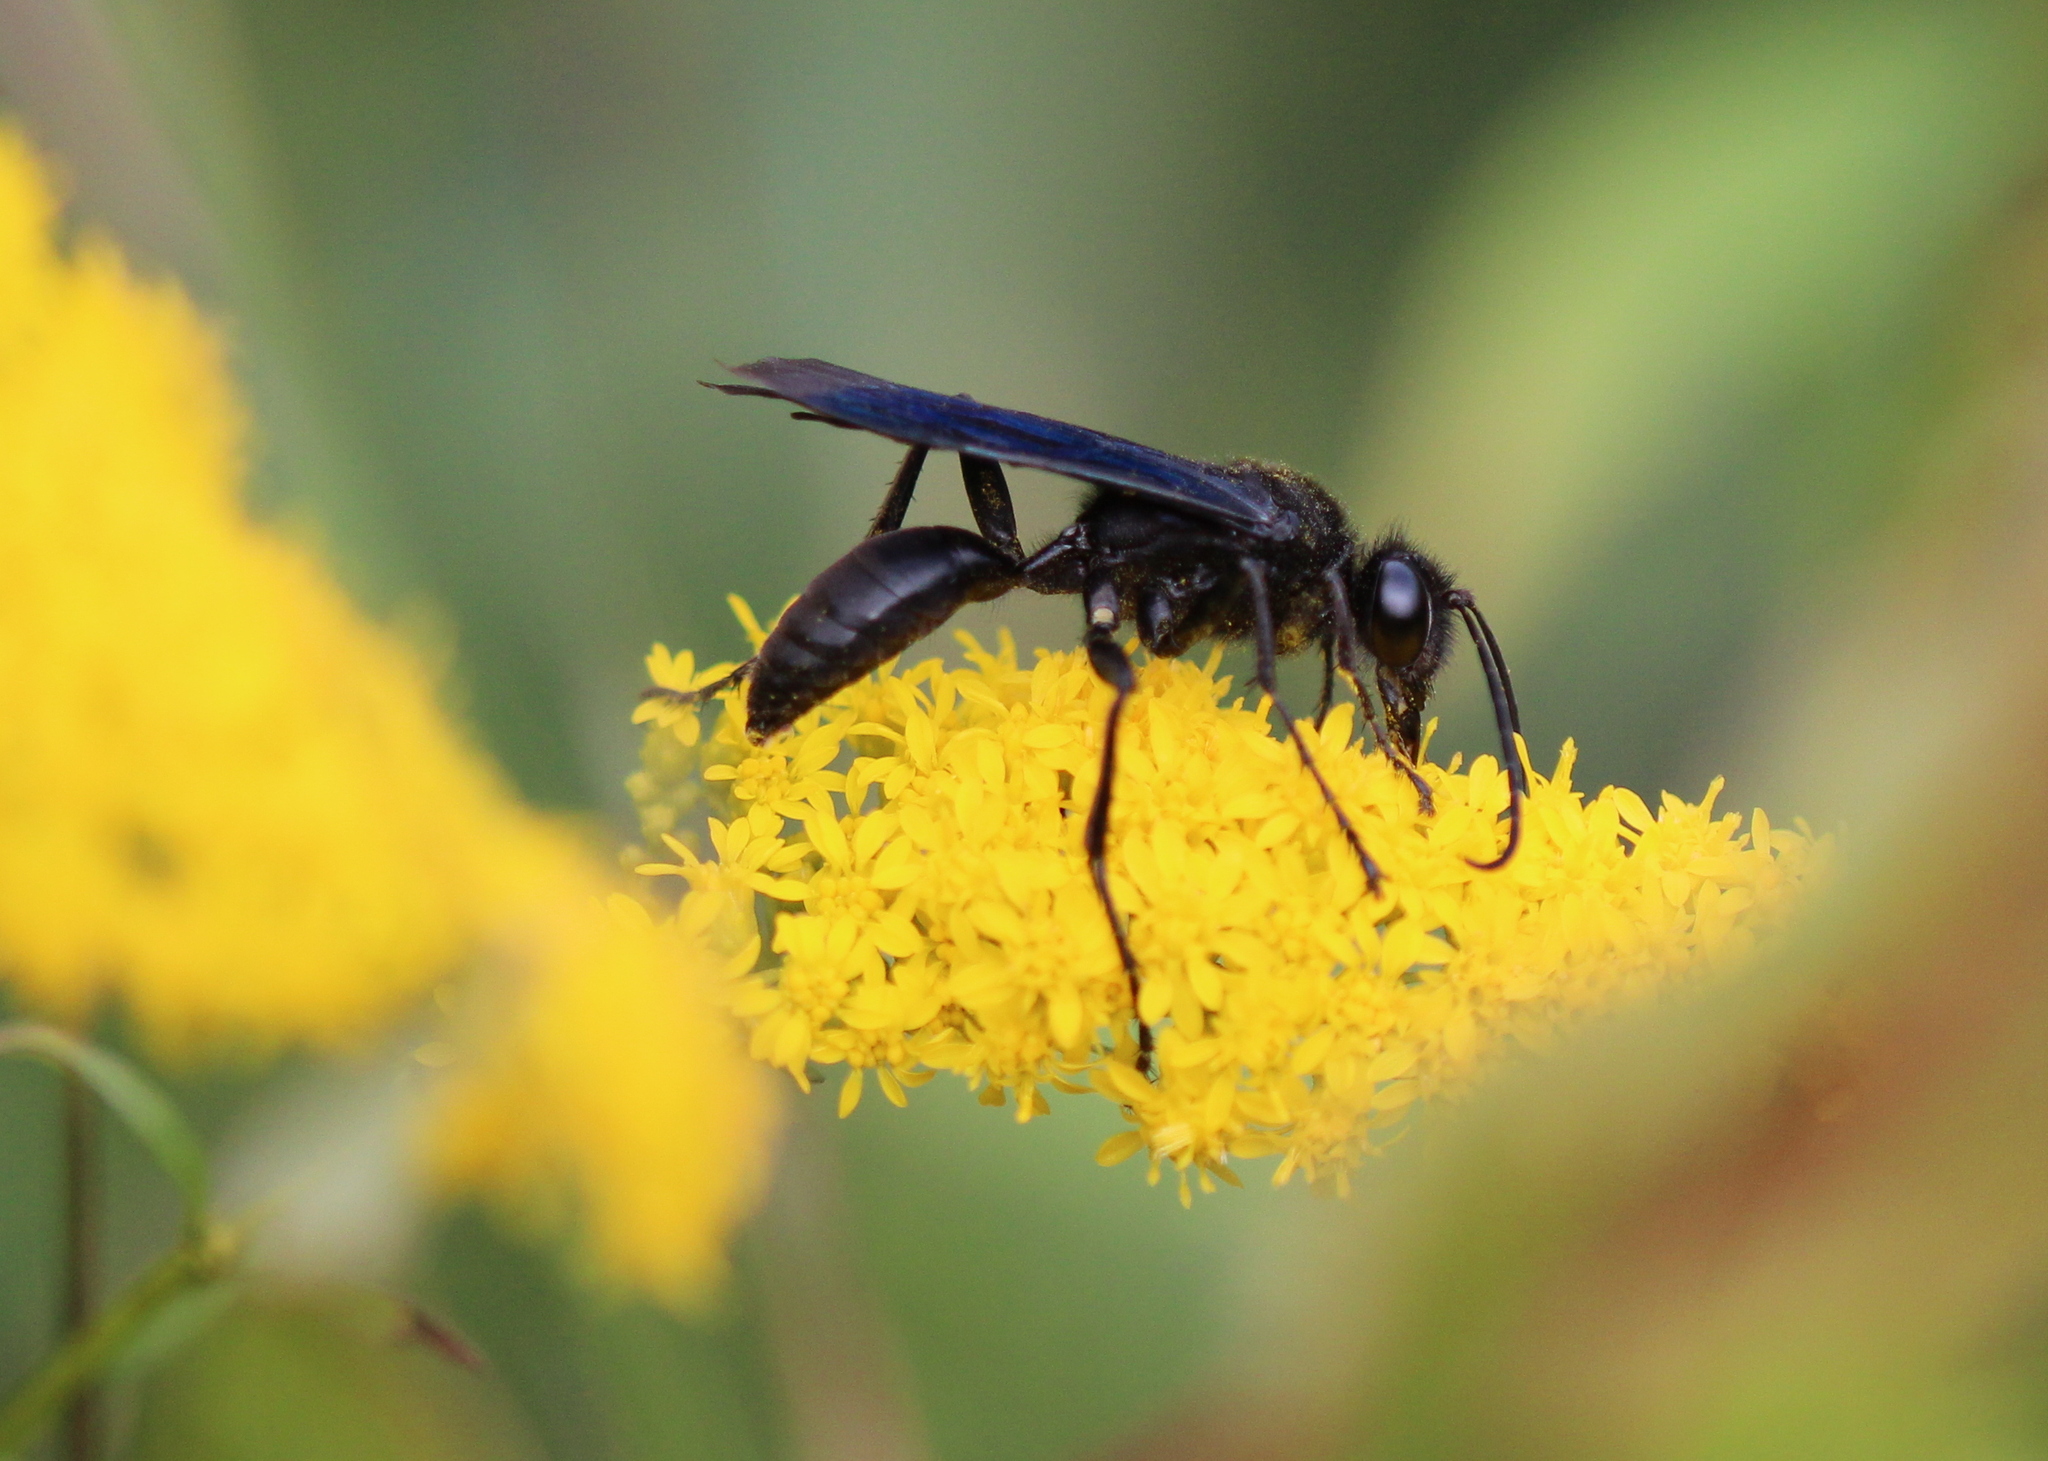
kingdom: Animalia
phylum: Arthropoda
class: Insecta
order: Hymenoptera
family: Sphecidae
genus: Sphex
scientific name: Sphex pensylvanicus
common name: Great black digger wasp
